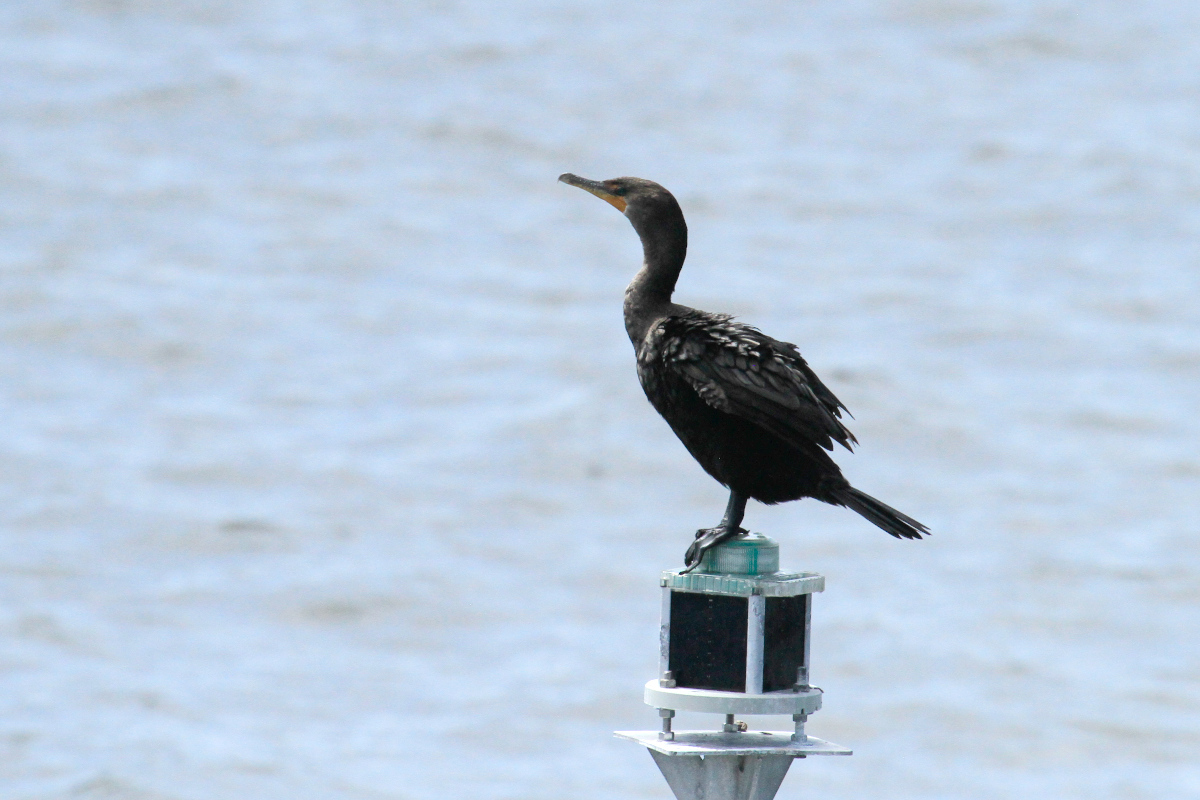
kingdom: Animalia
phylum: Chordata
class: Aves
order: Suliformes
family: Phalacrocoracidae
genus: Phalacrocorax
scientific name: Phalacrocorax auritus
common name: Double-crested cormorant
